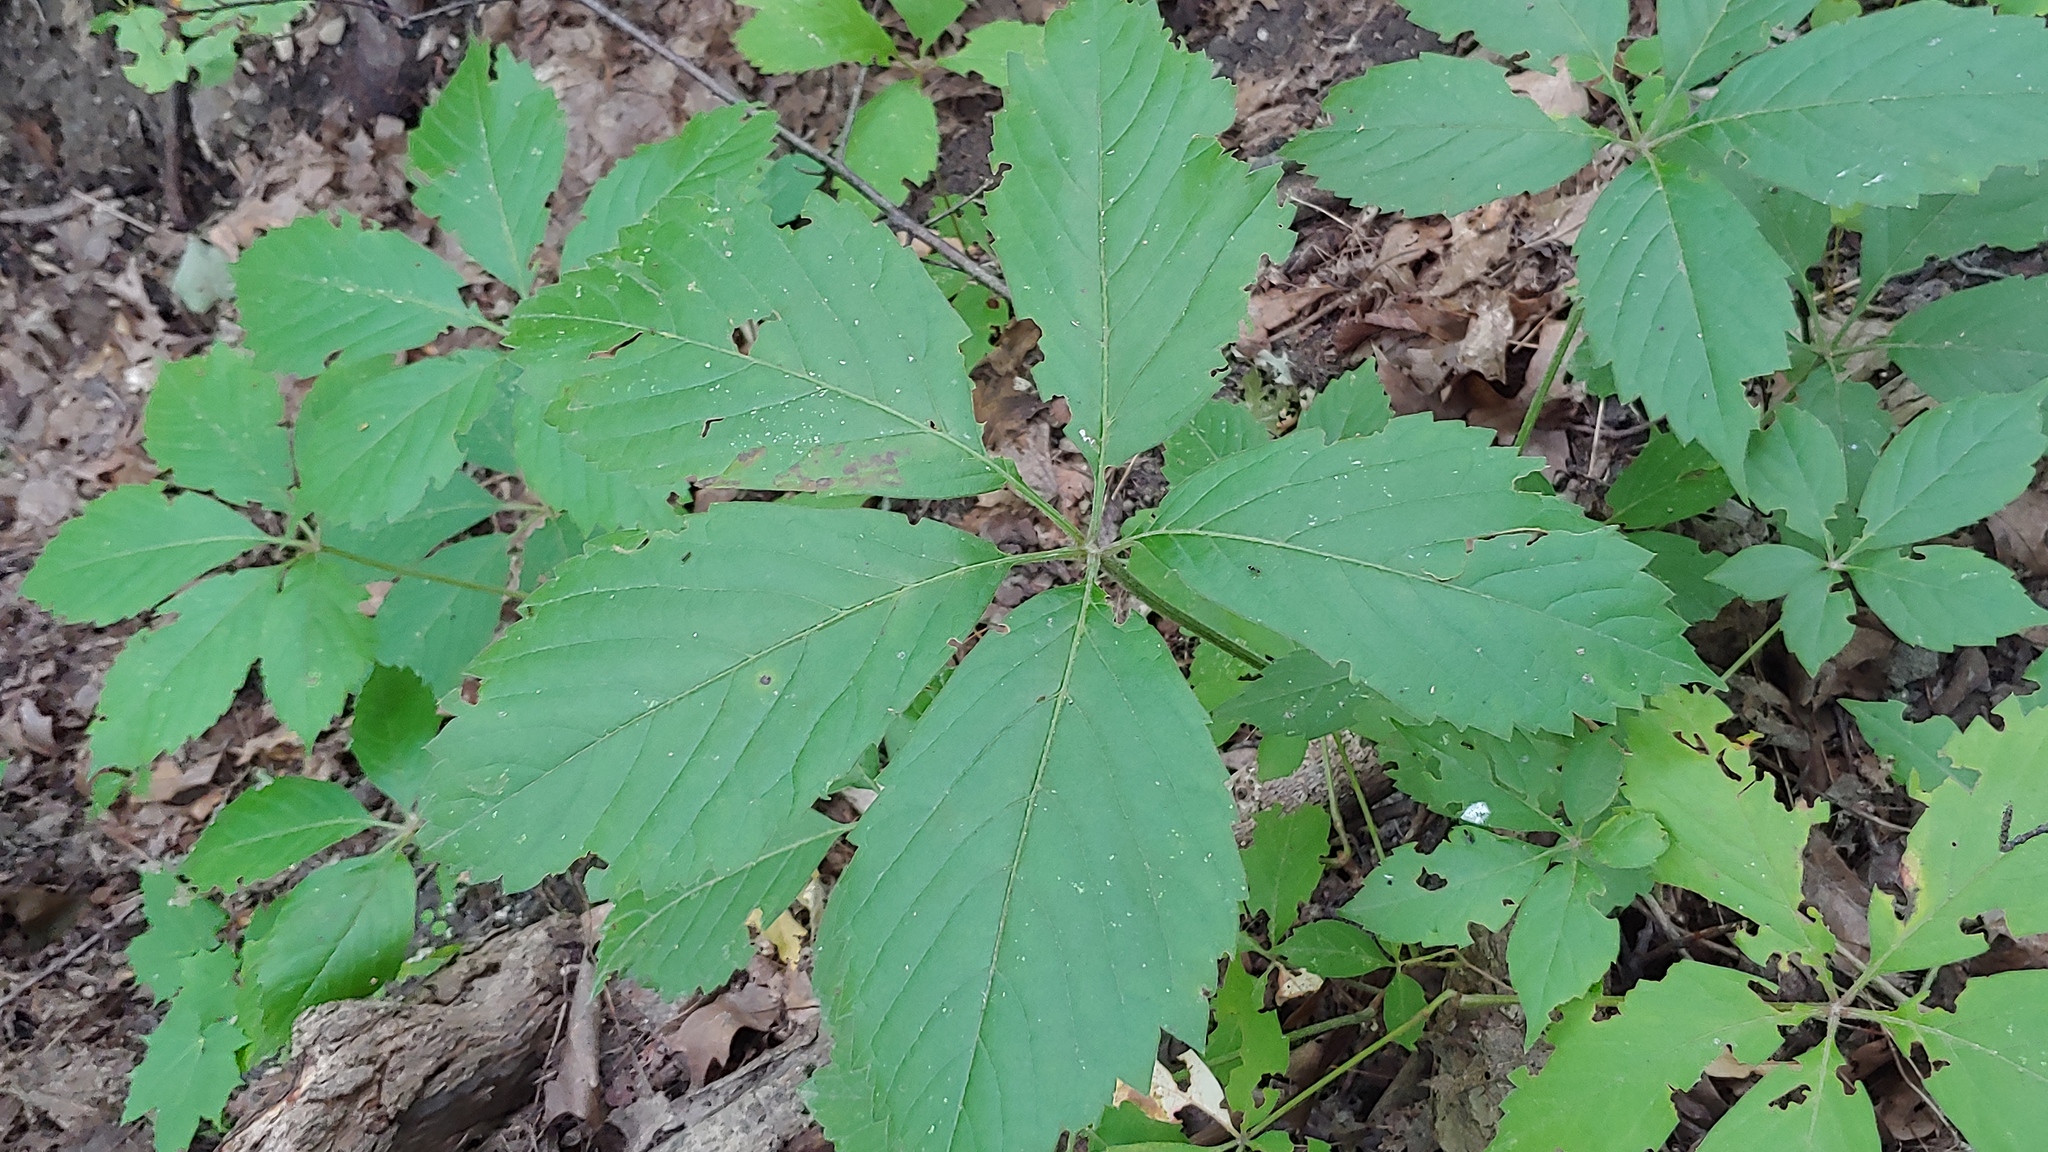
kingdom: Plantae
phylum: Tracheophyta
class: Magnoliopsida
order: Vitales
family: Vitaceae
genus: Parthenocissus
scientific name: Parthenocissus inserta
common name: False virginia-creeper
